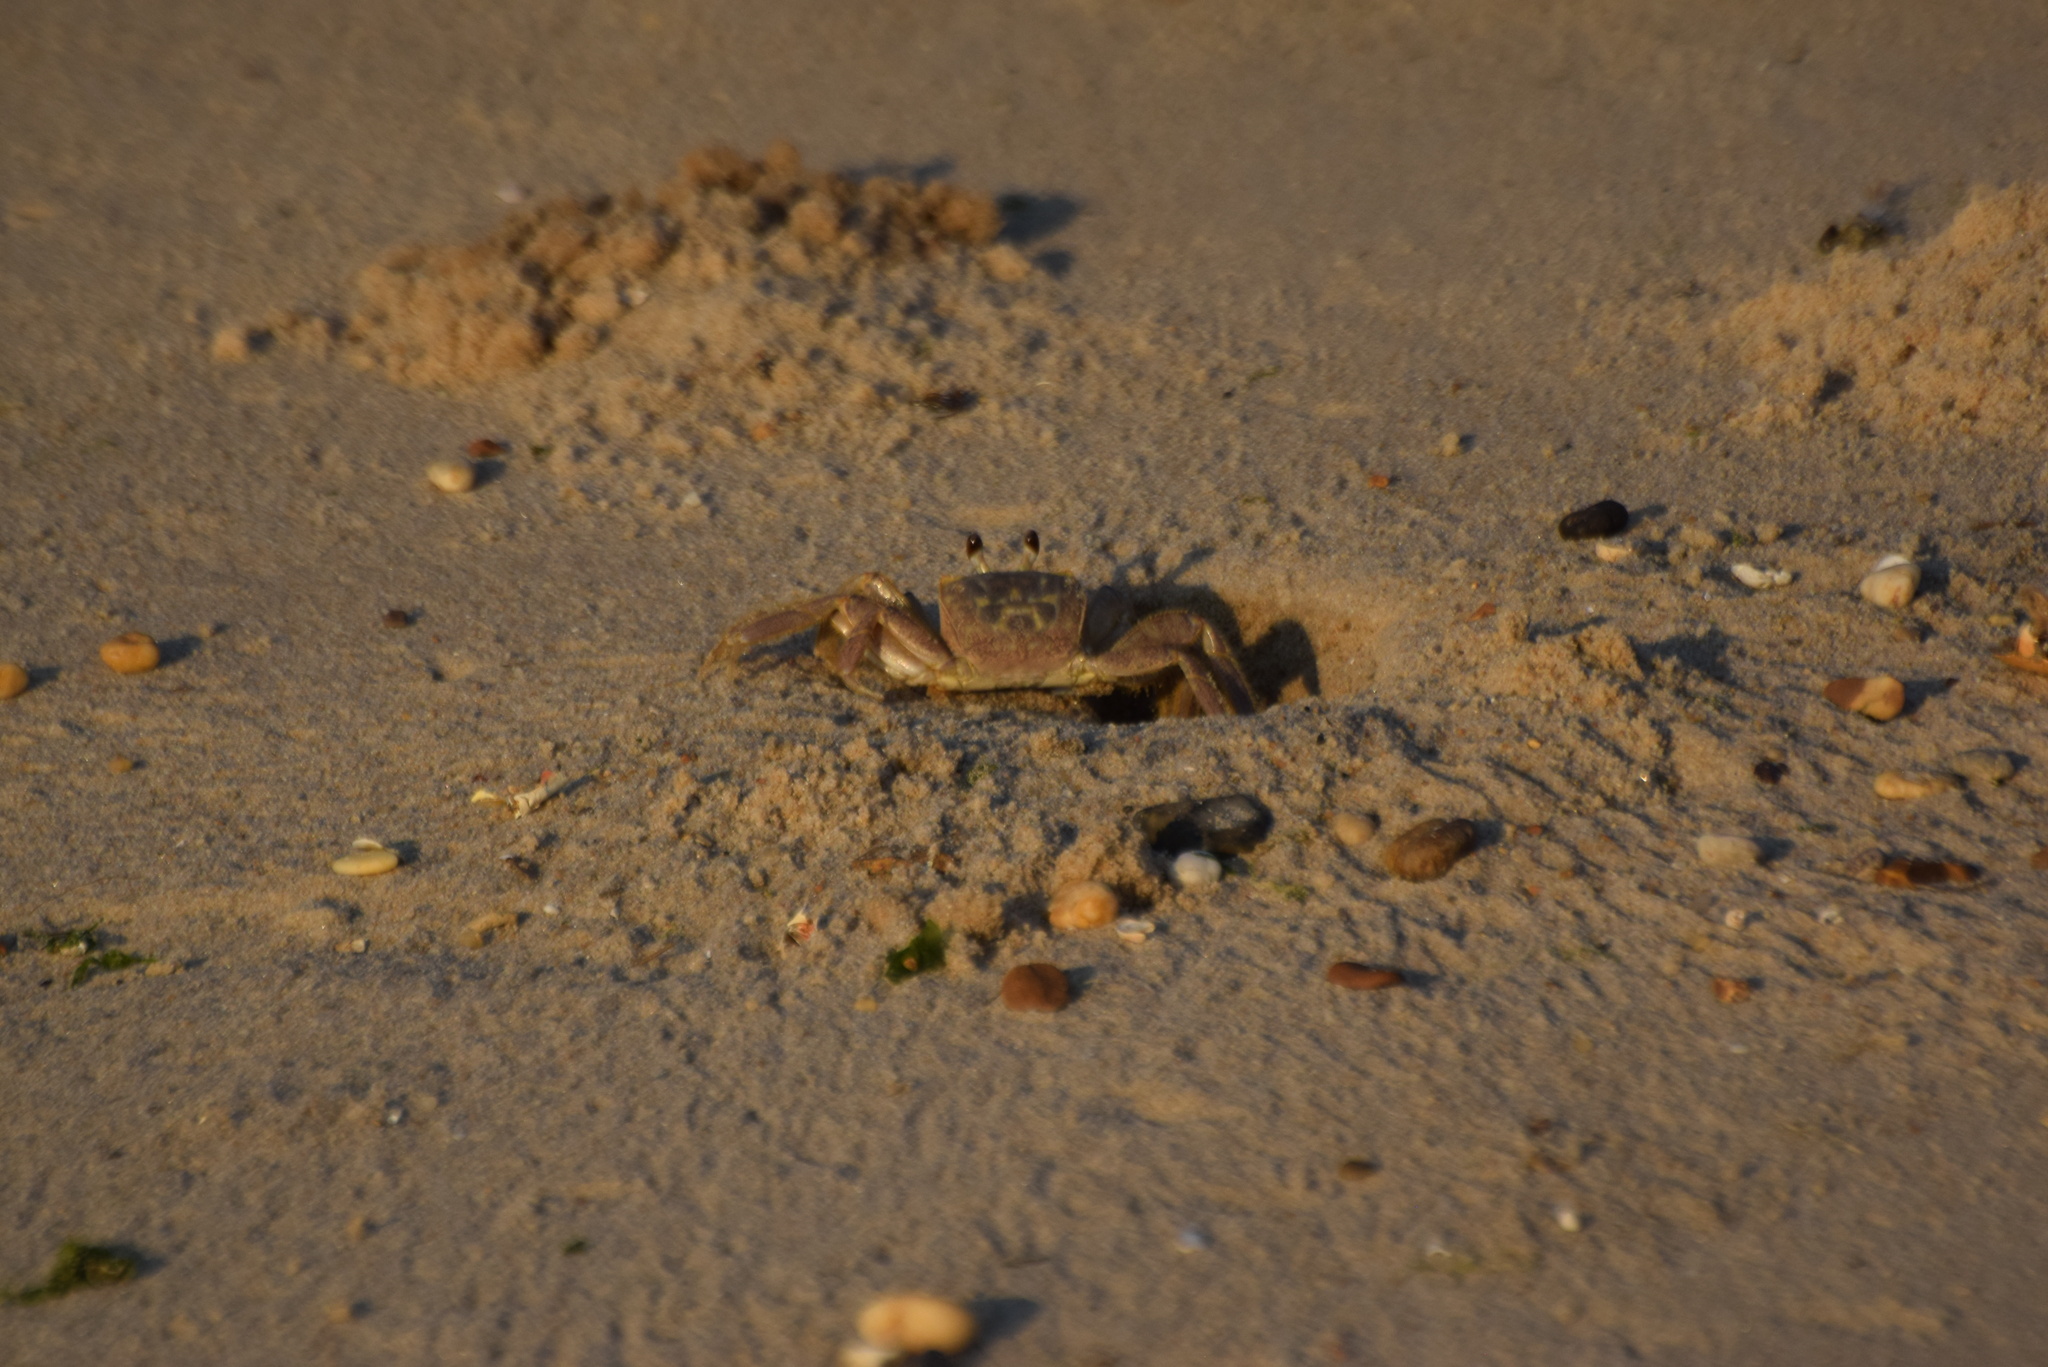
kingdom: Animalia
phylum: Arthropoda
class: Malacostraca
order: Decapoda
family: Ocypodidae
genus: Ocypode
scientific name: Ocypode quadrata
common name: Ghost crab
